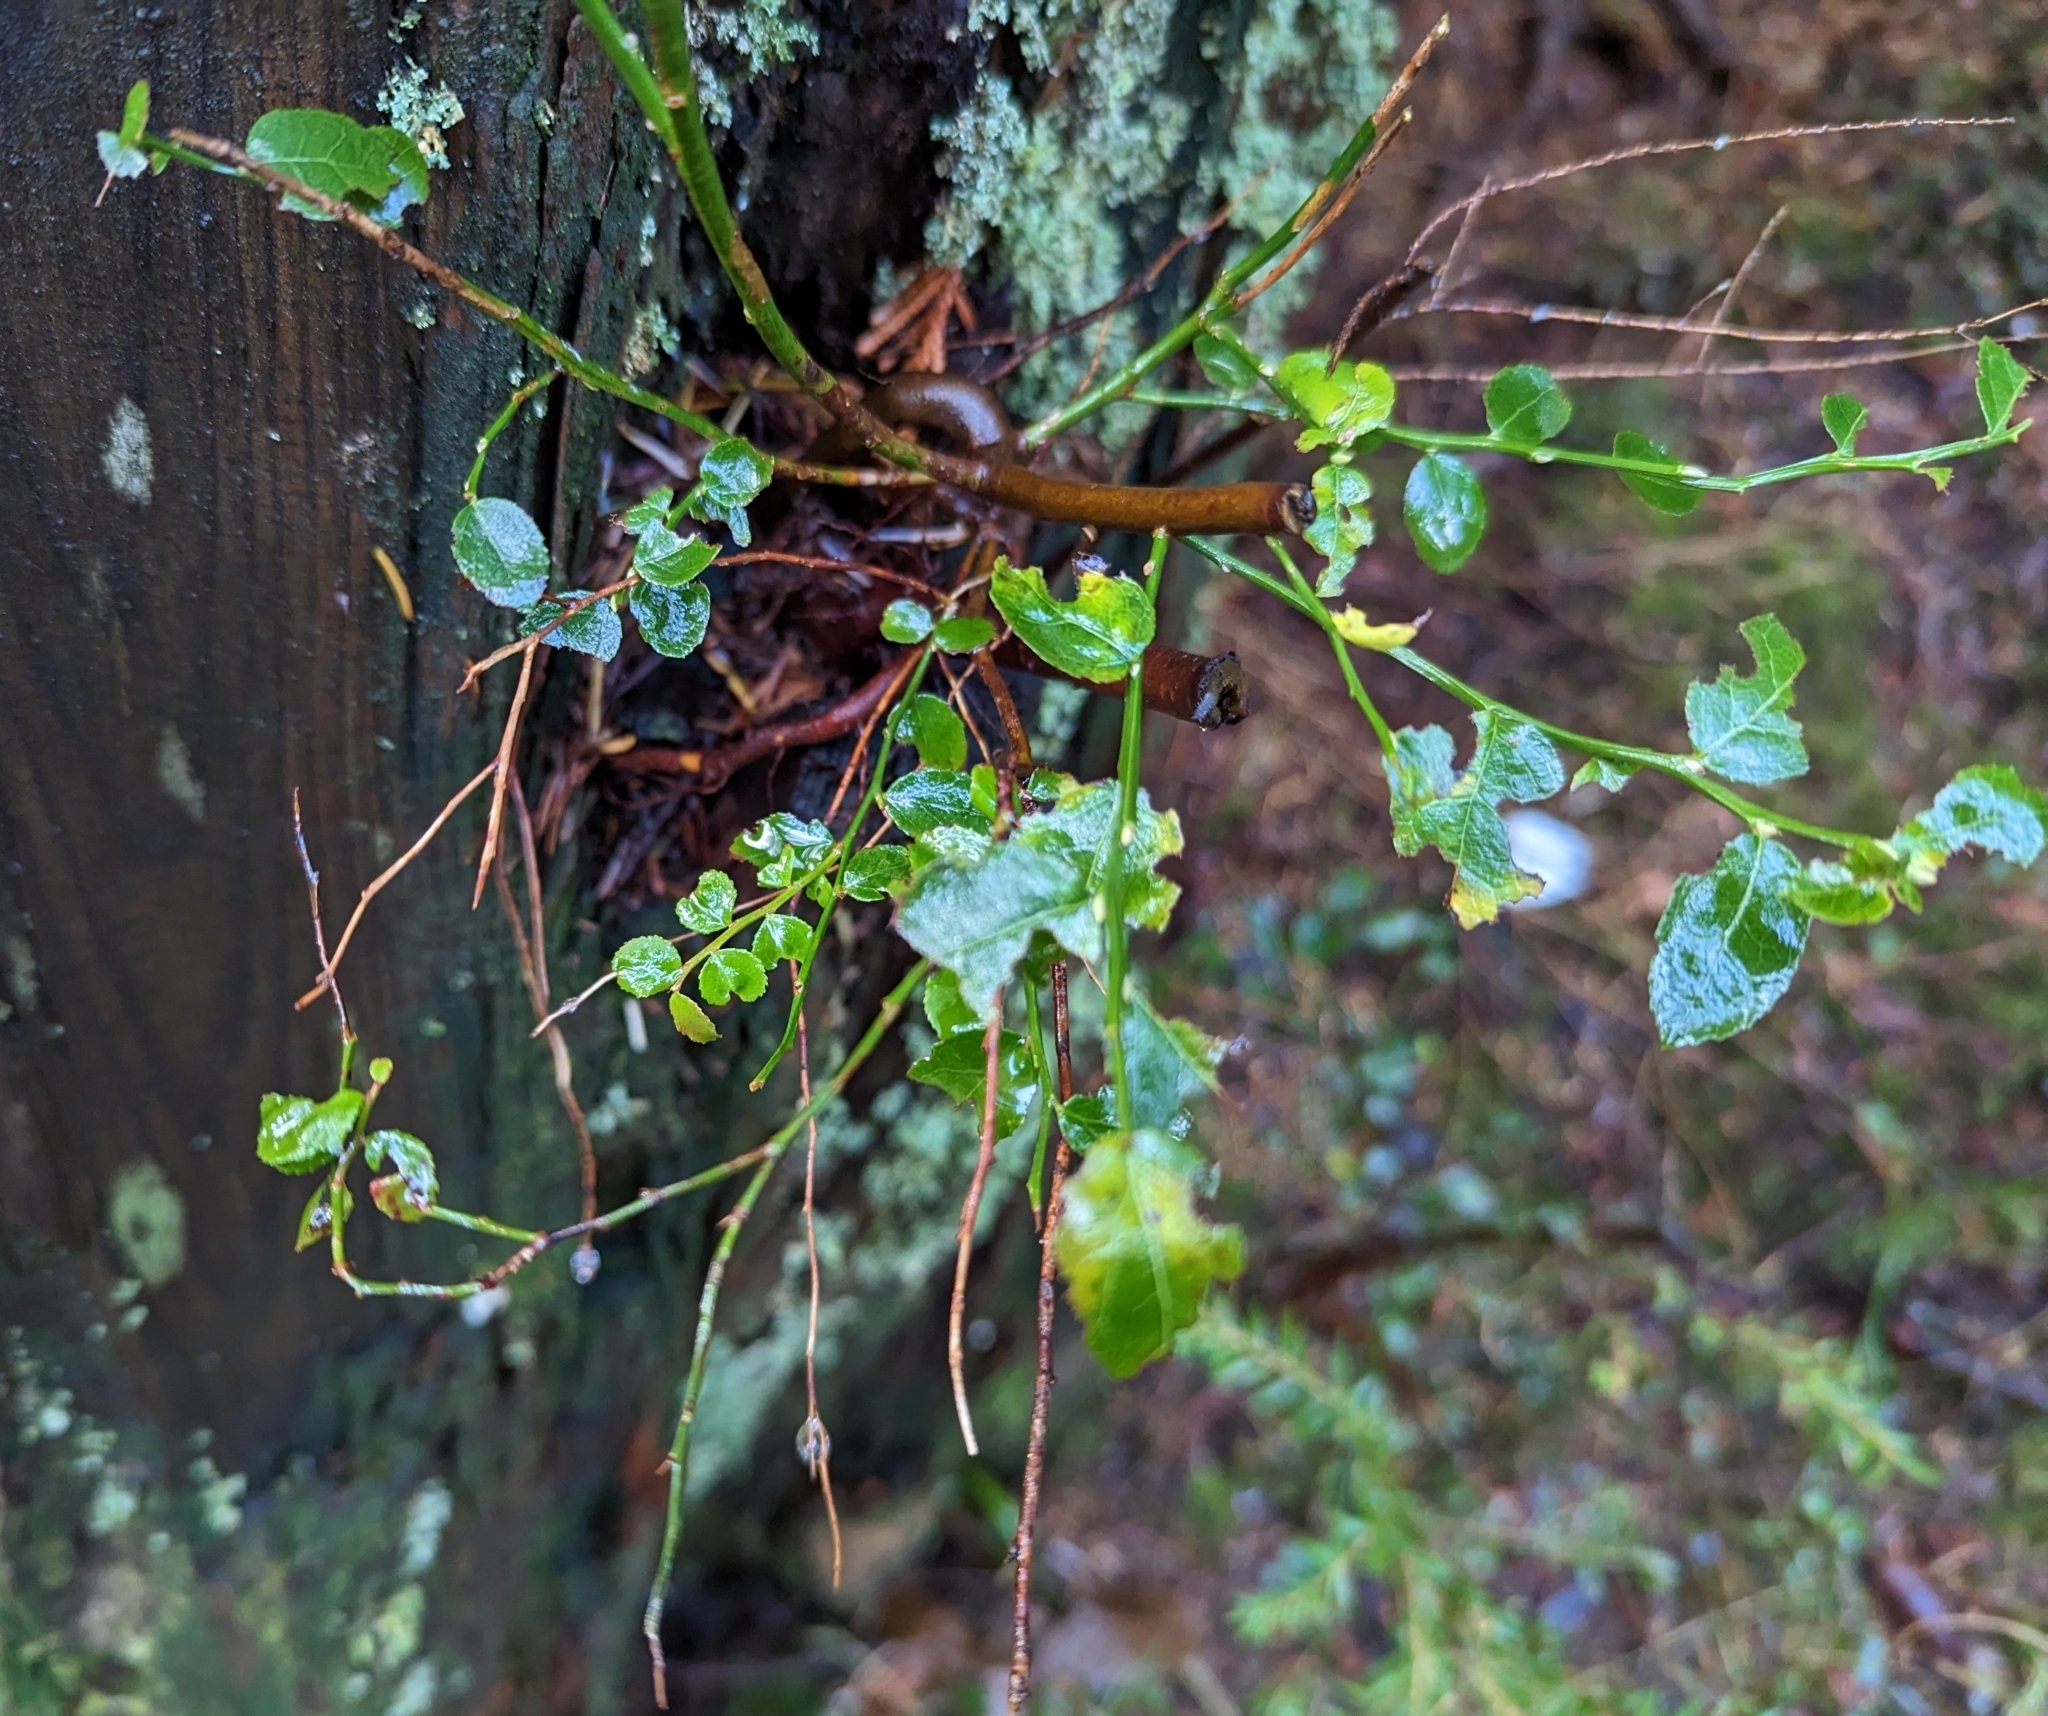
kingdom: Plantae
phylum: Tracheophyta
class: Magnoliopsida
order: Ericales
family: Ericaceae
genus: Vaccinium
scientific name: Vaccinium parvifolium
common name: Red-huckleberry
